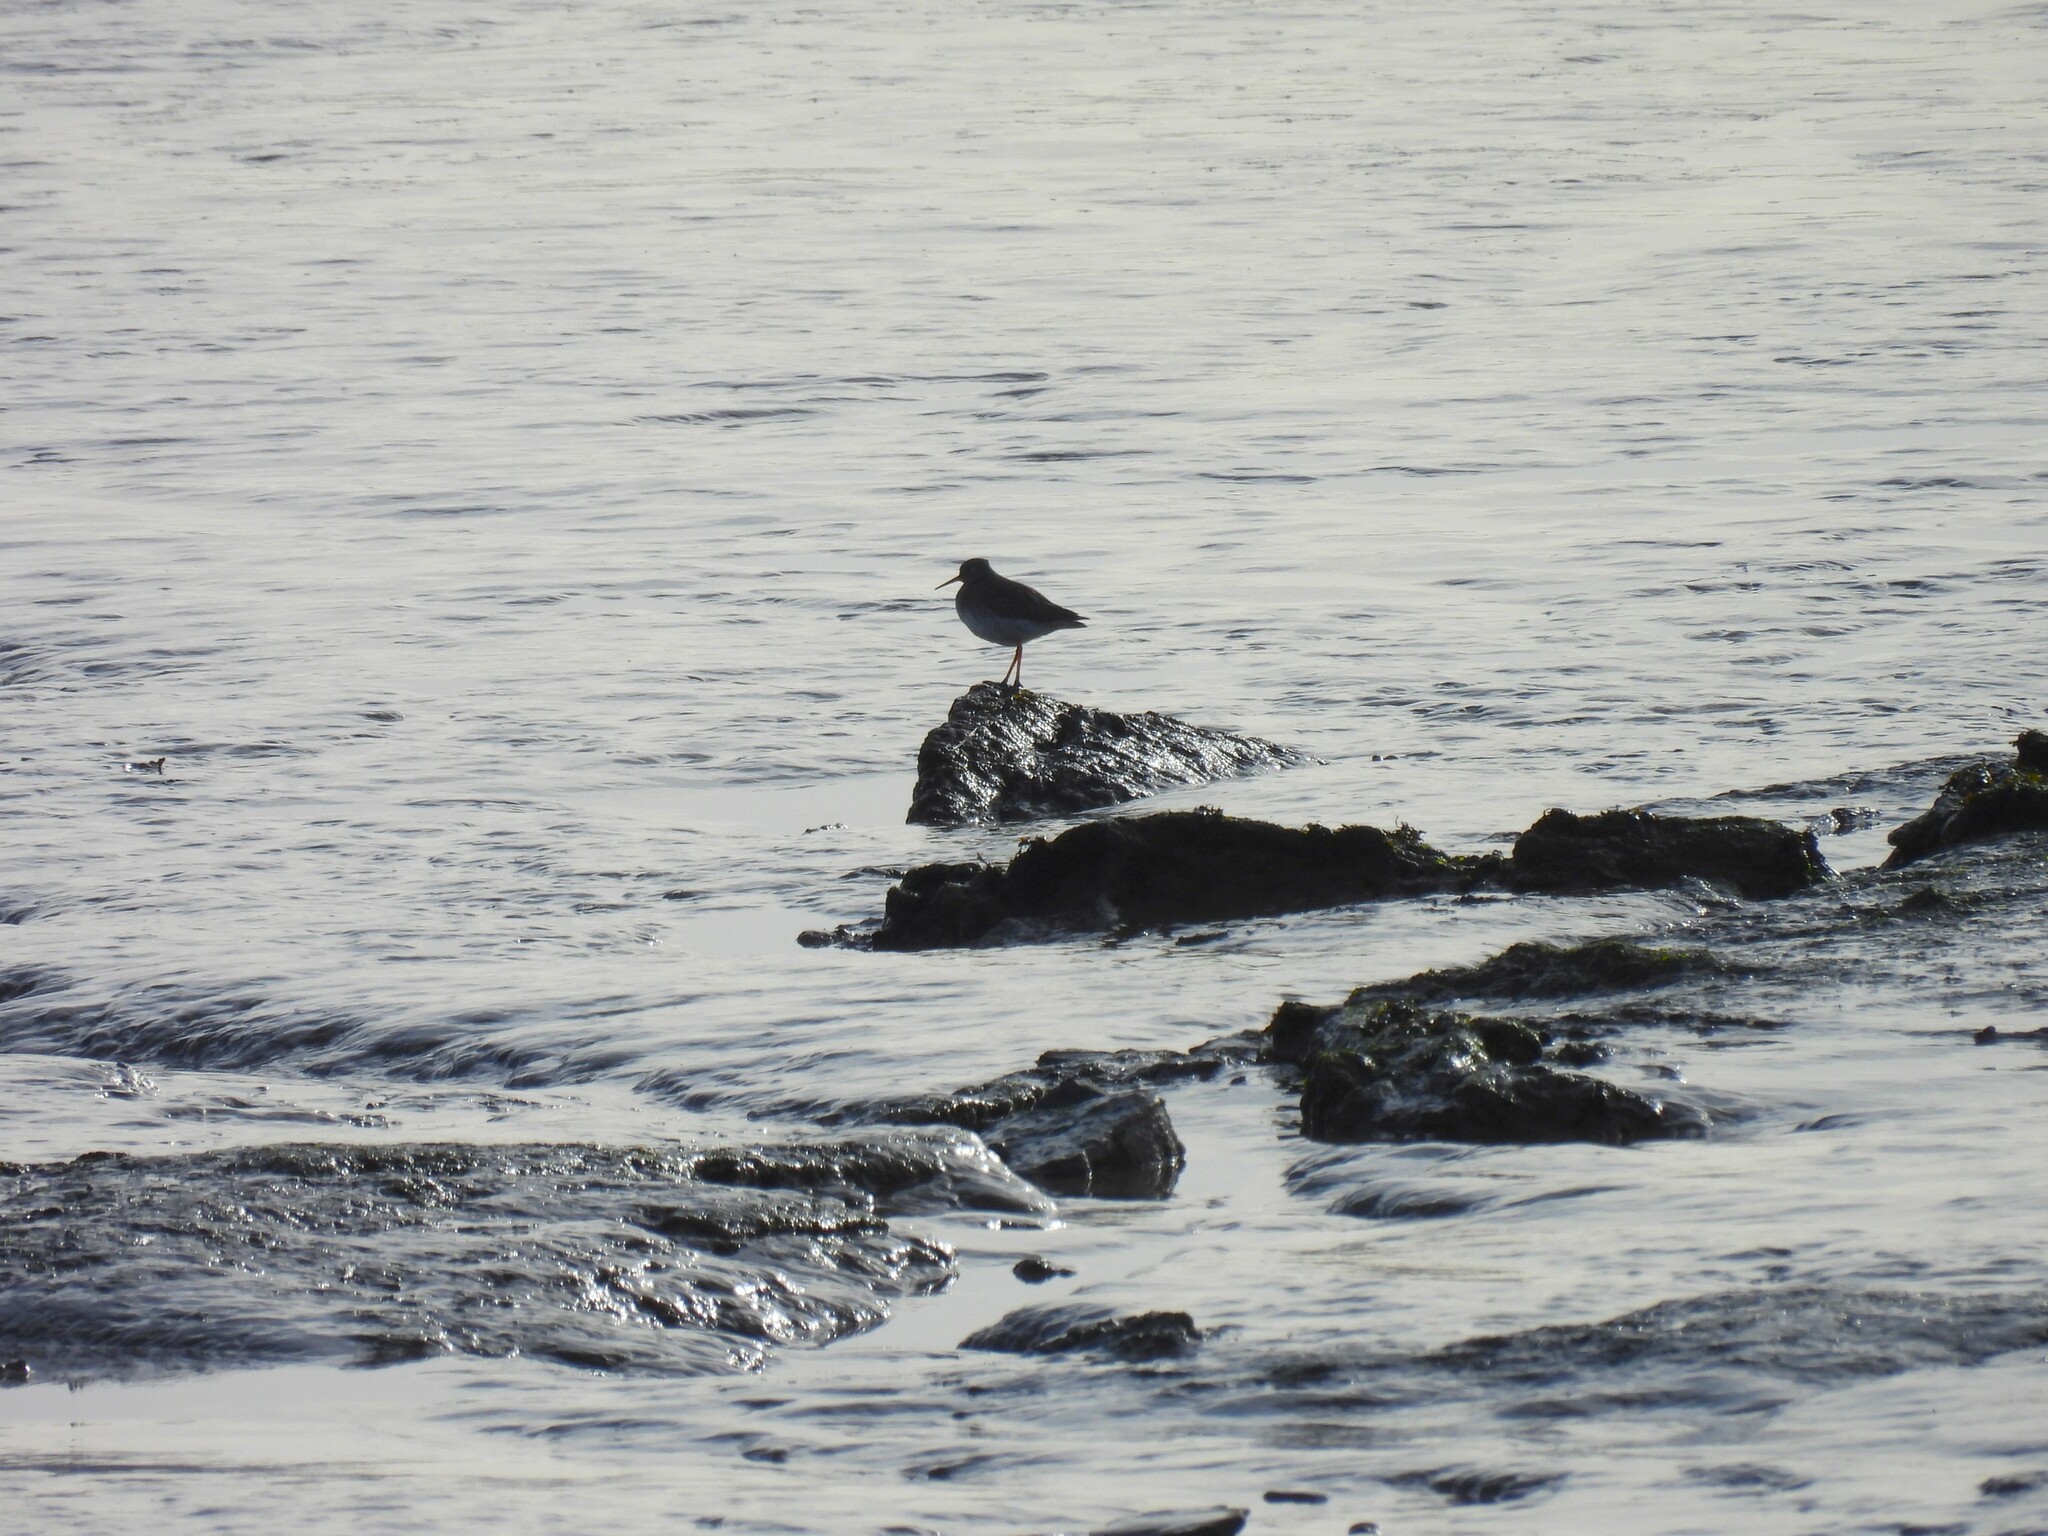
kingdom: Animalia
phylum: Chordata
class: Aves
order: Charadriiformes
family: Scolopacidae
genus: Tringa
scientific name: Tringa totanus
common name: Common redshank
